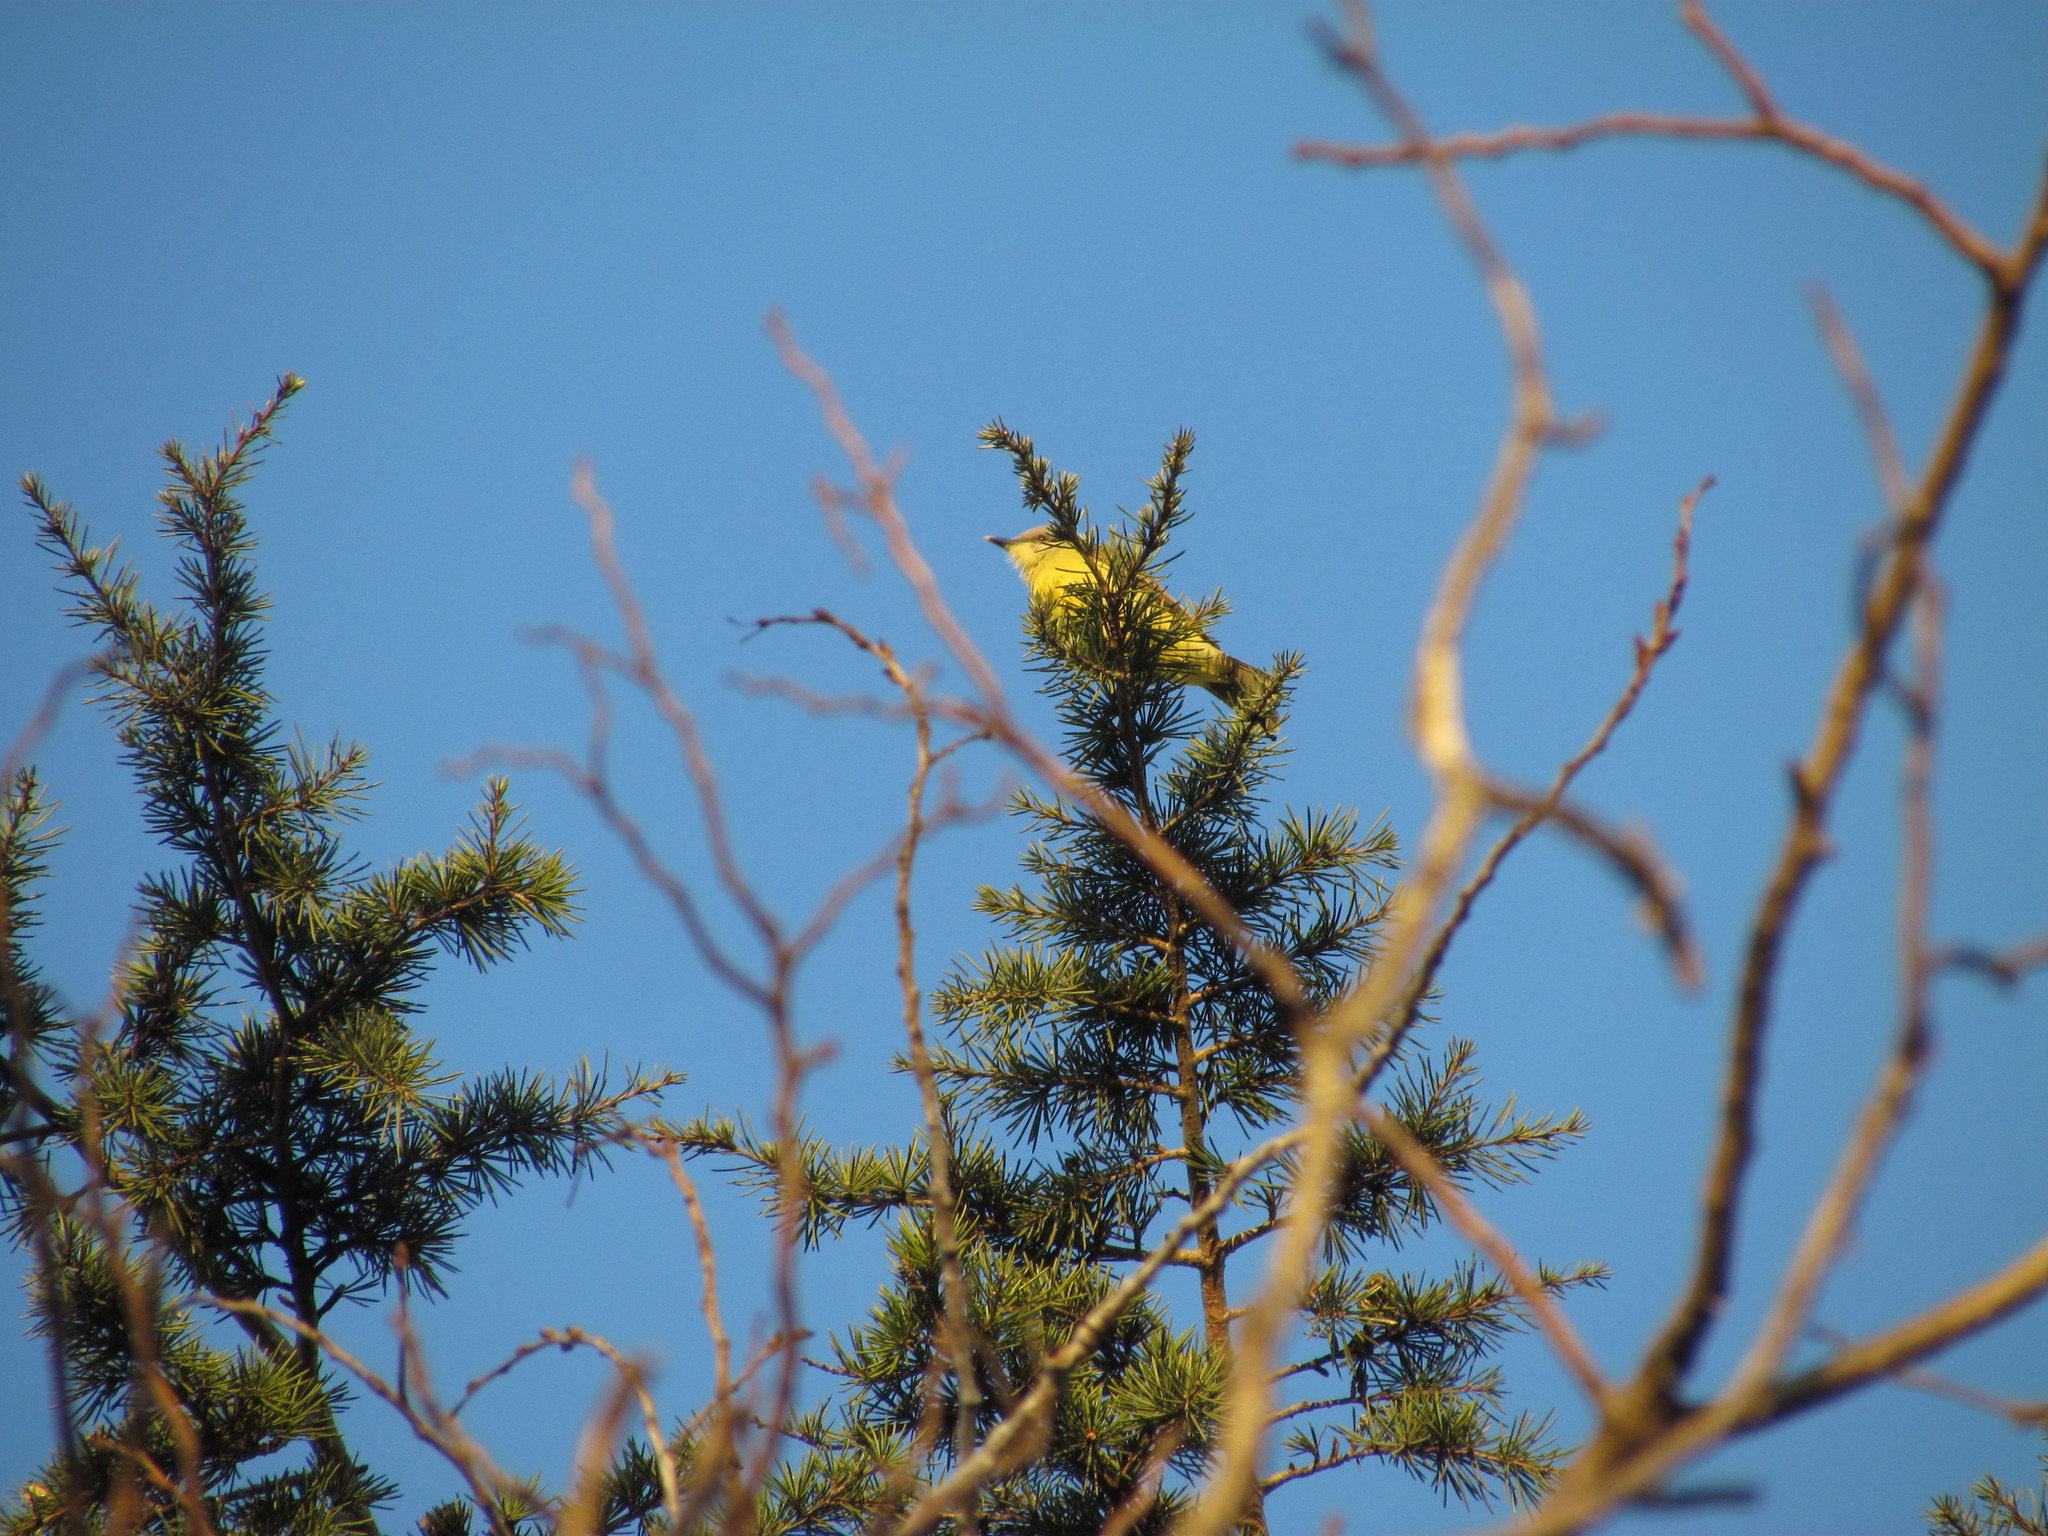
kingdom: Animalia
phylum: Chordata
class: Aves
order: Passeriformes
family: Tyrannidae
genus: Machetornis
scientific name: Machetornis rixosa
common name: Cattle tyrant
